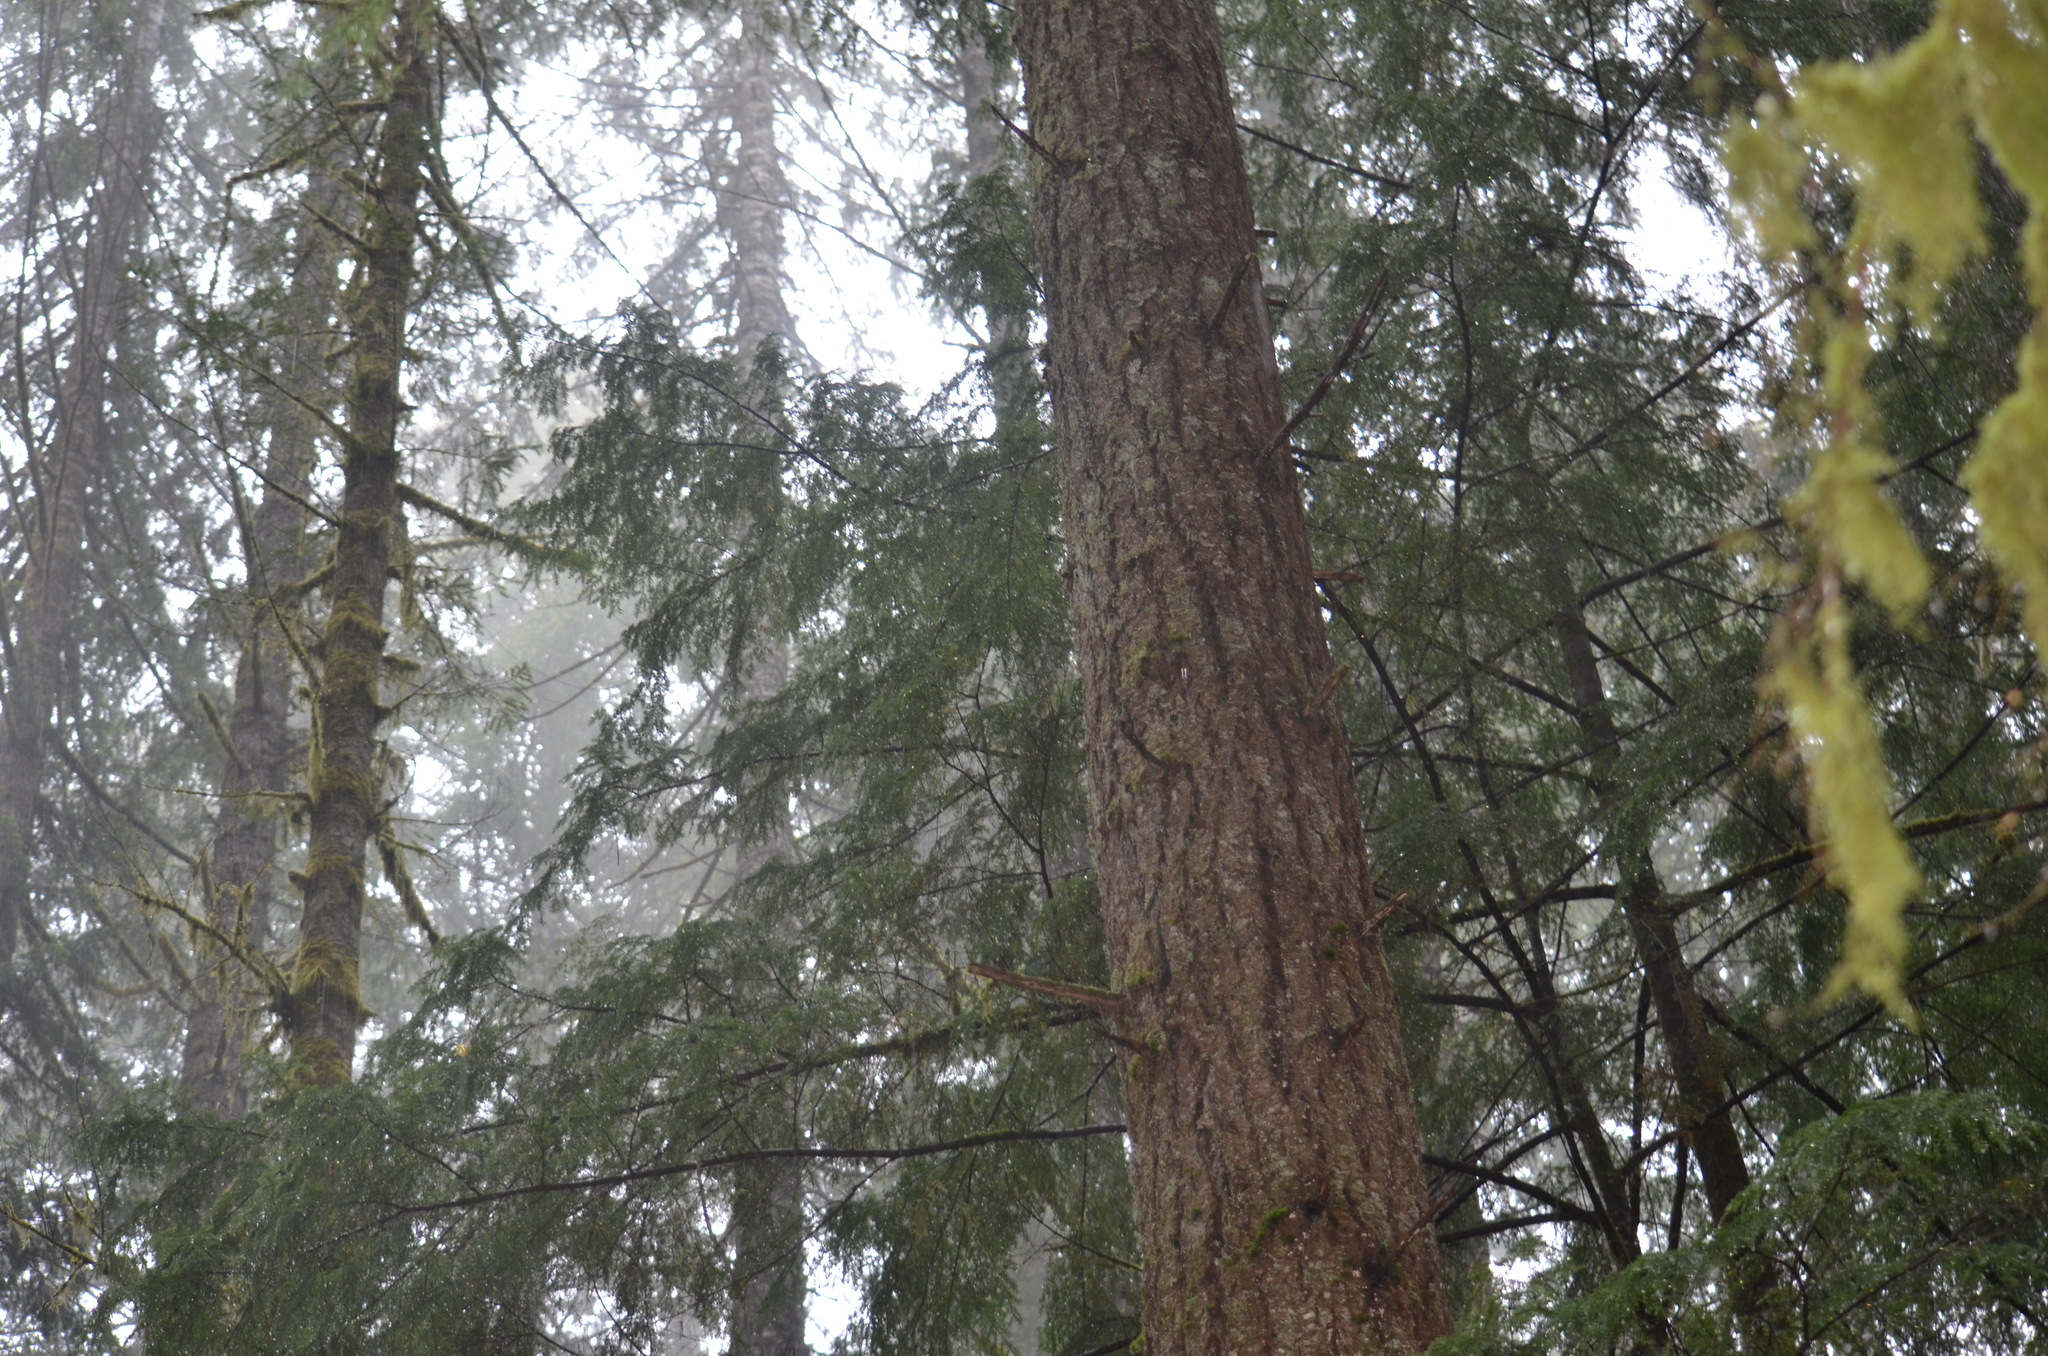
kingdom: Plantae
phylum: Tracheophyta
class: Pinopsida
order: Pinales
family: Pinaceae
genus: Pseudotsuga
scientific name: Pseudotsuga menziesii
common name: Douglas fir
